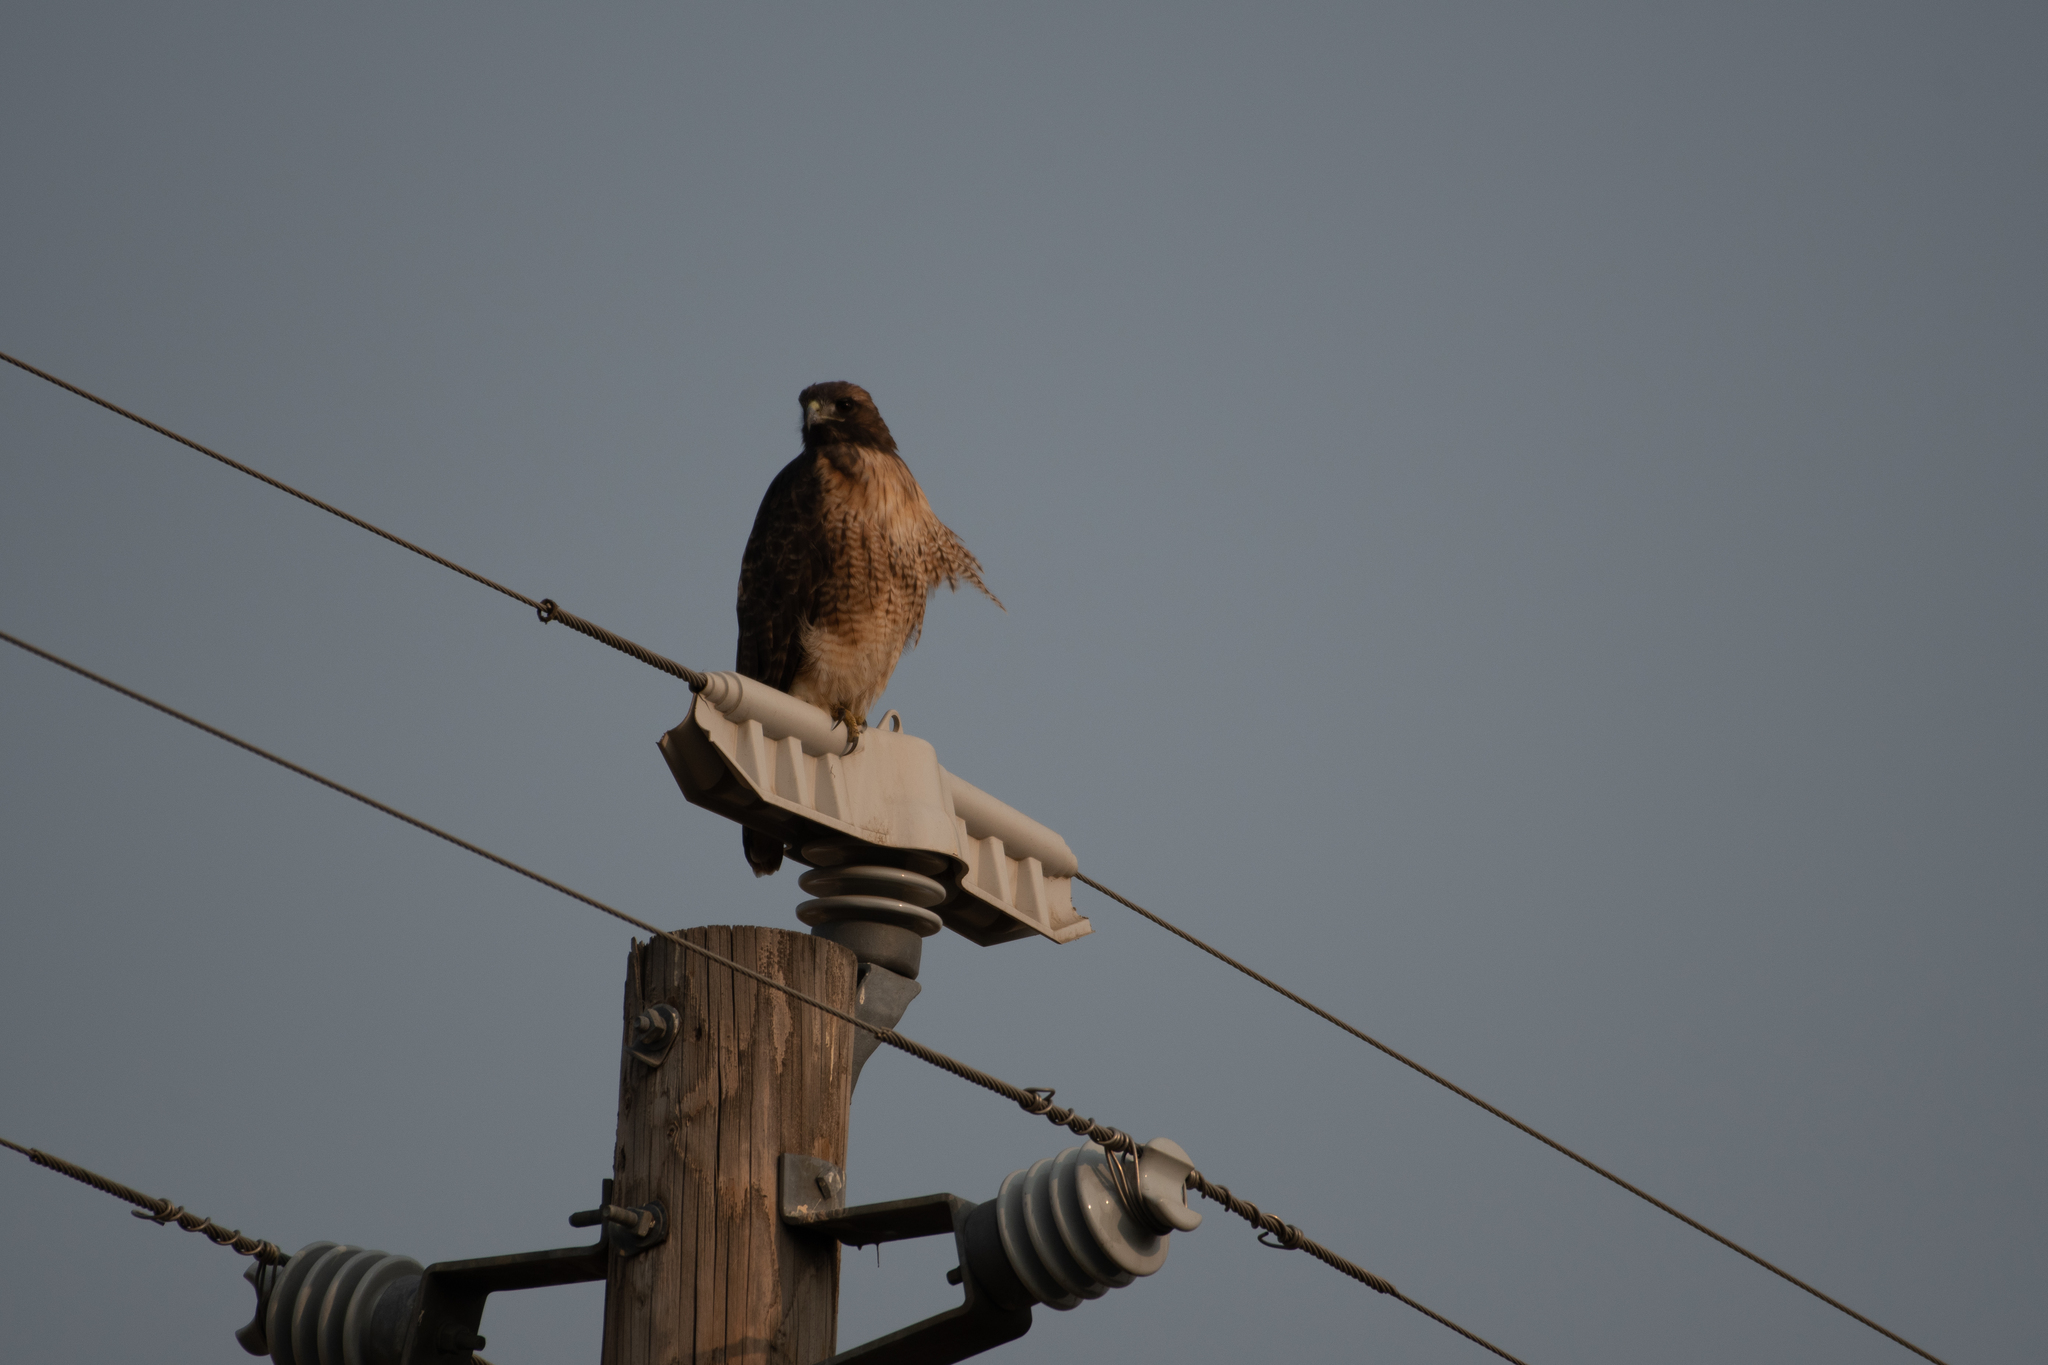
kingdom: Animalia
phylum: Chordata
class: Aves
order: Accipitriformes
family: Accipitridae
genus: Buteo
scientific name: Buteo jamaicensis
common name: Red-tailed hawk
